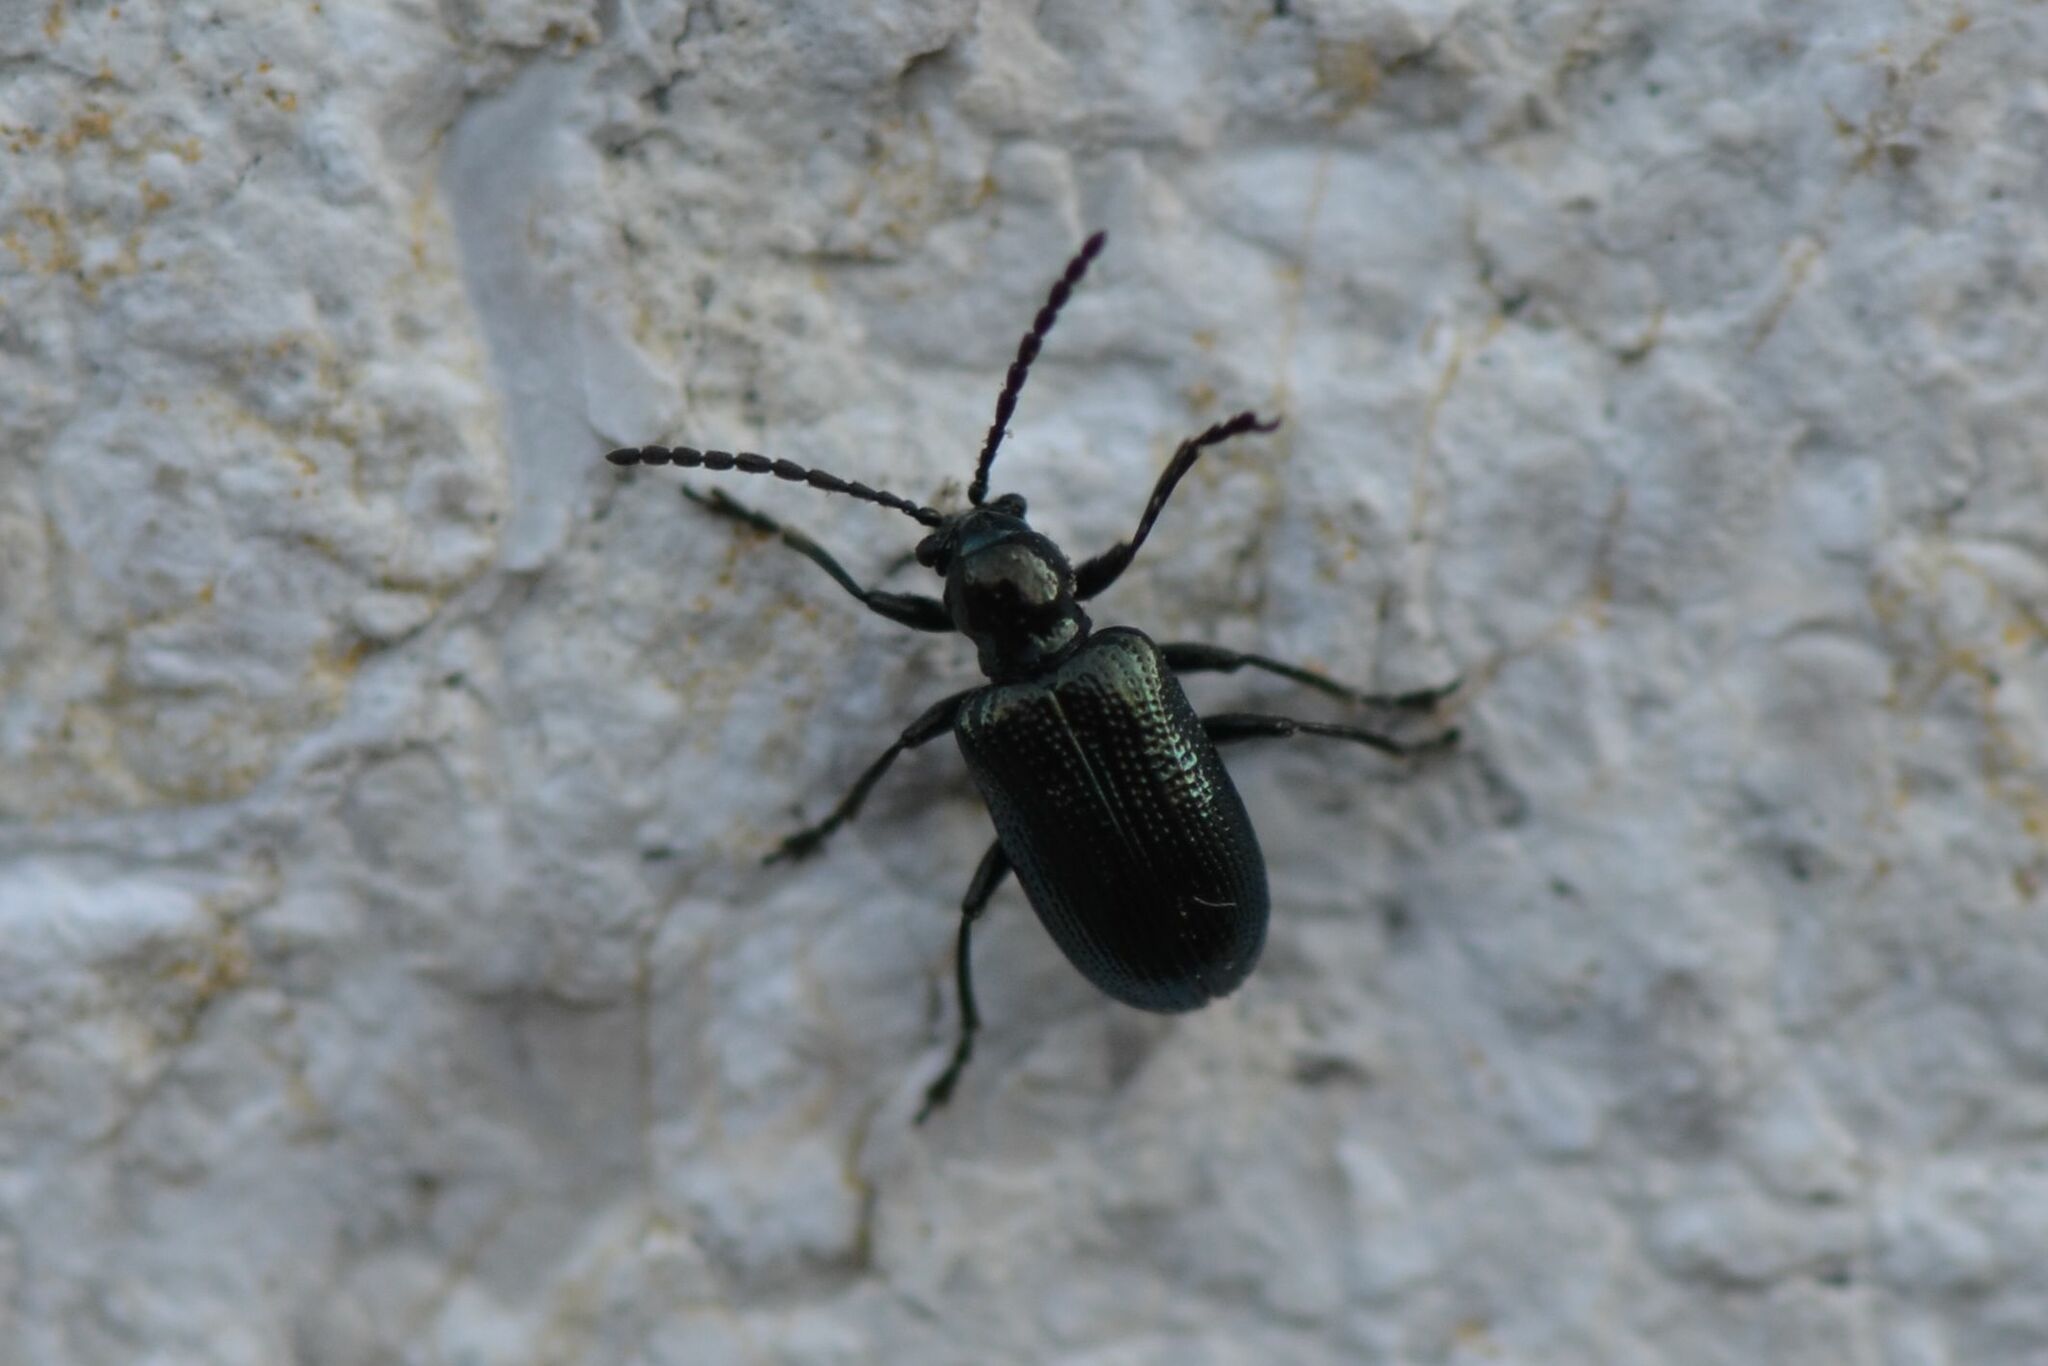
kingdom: Animalia
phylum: Arthropoda
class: Insecta
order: Coleoptera
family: Chrysomelidae
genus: Oulema
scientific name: Oulema gallaeciana
